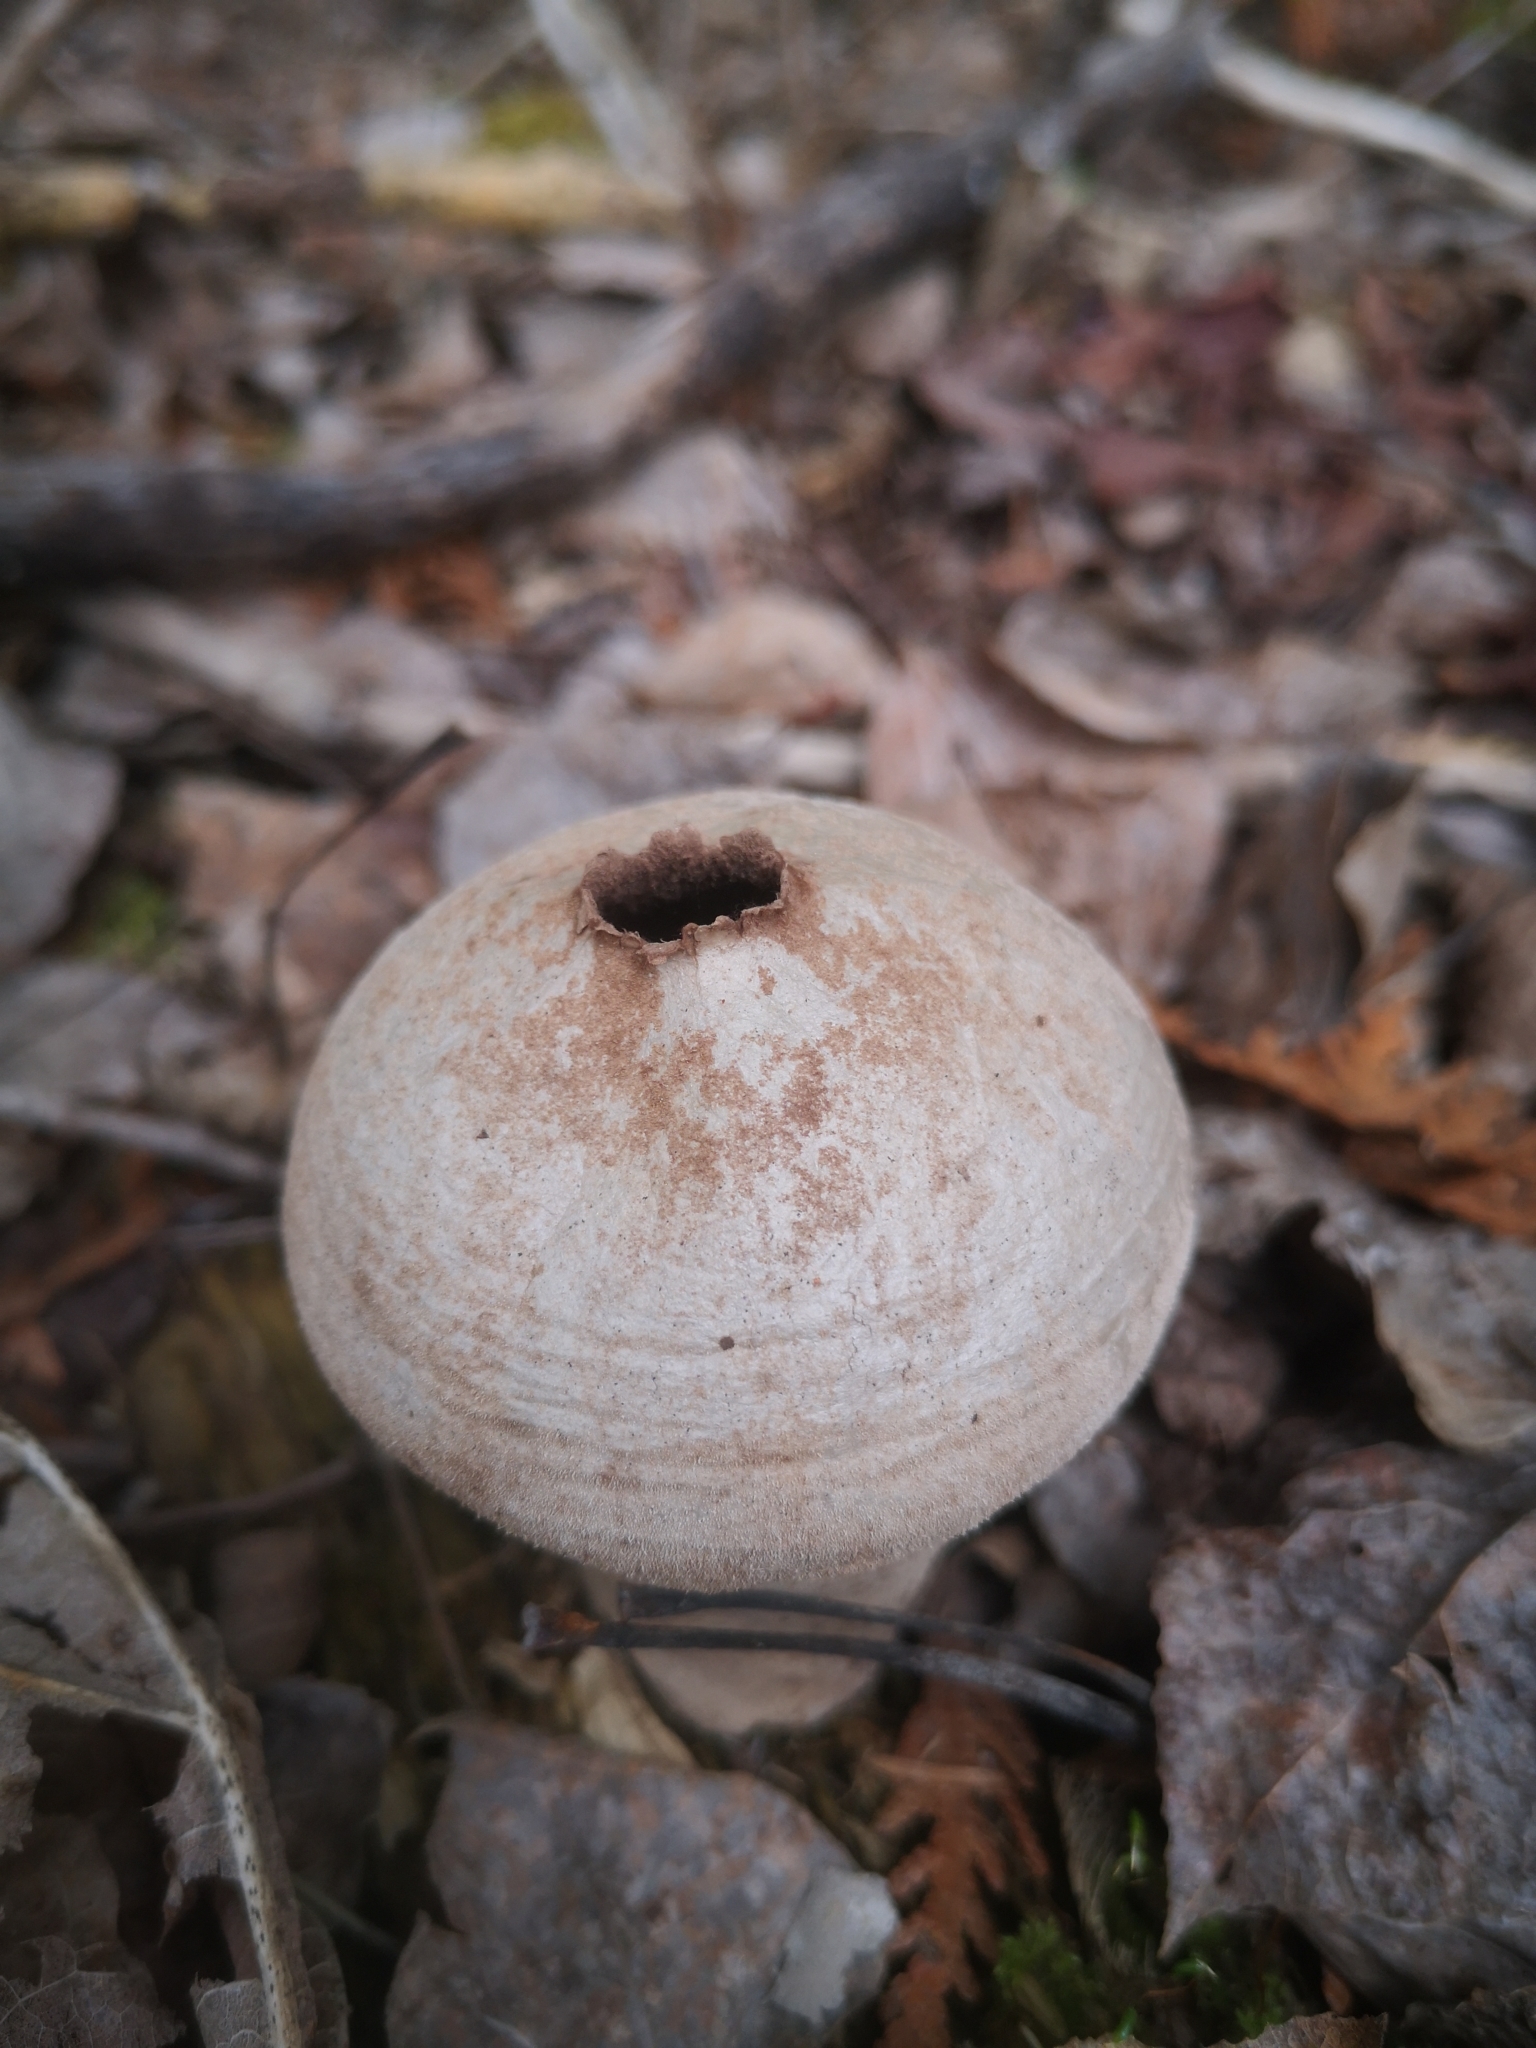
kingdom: Fungi
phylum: Basidiomycota
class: Agaricomycetes
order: Agaricales
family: Lycoperdaceae
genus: Lycoperdon
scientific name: Lycoperdon perlatum
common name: Common puffball
